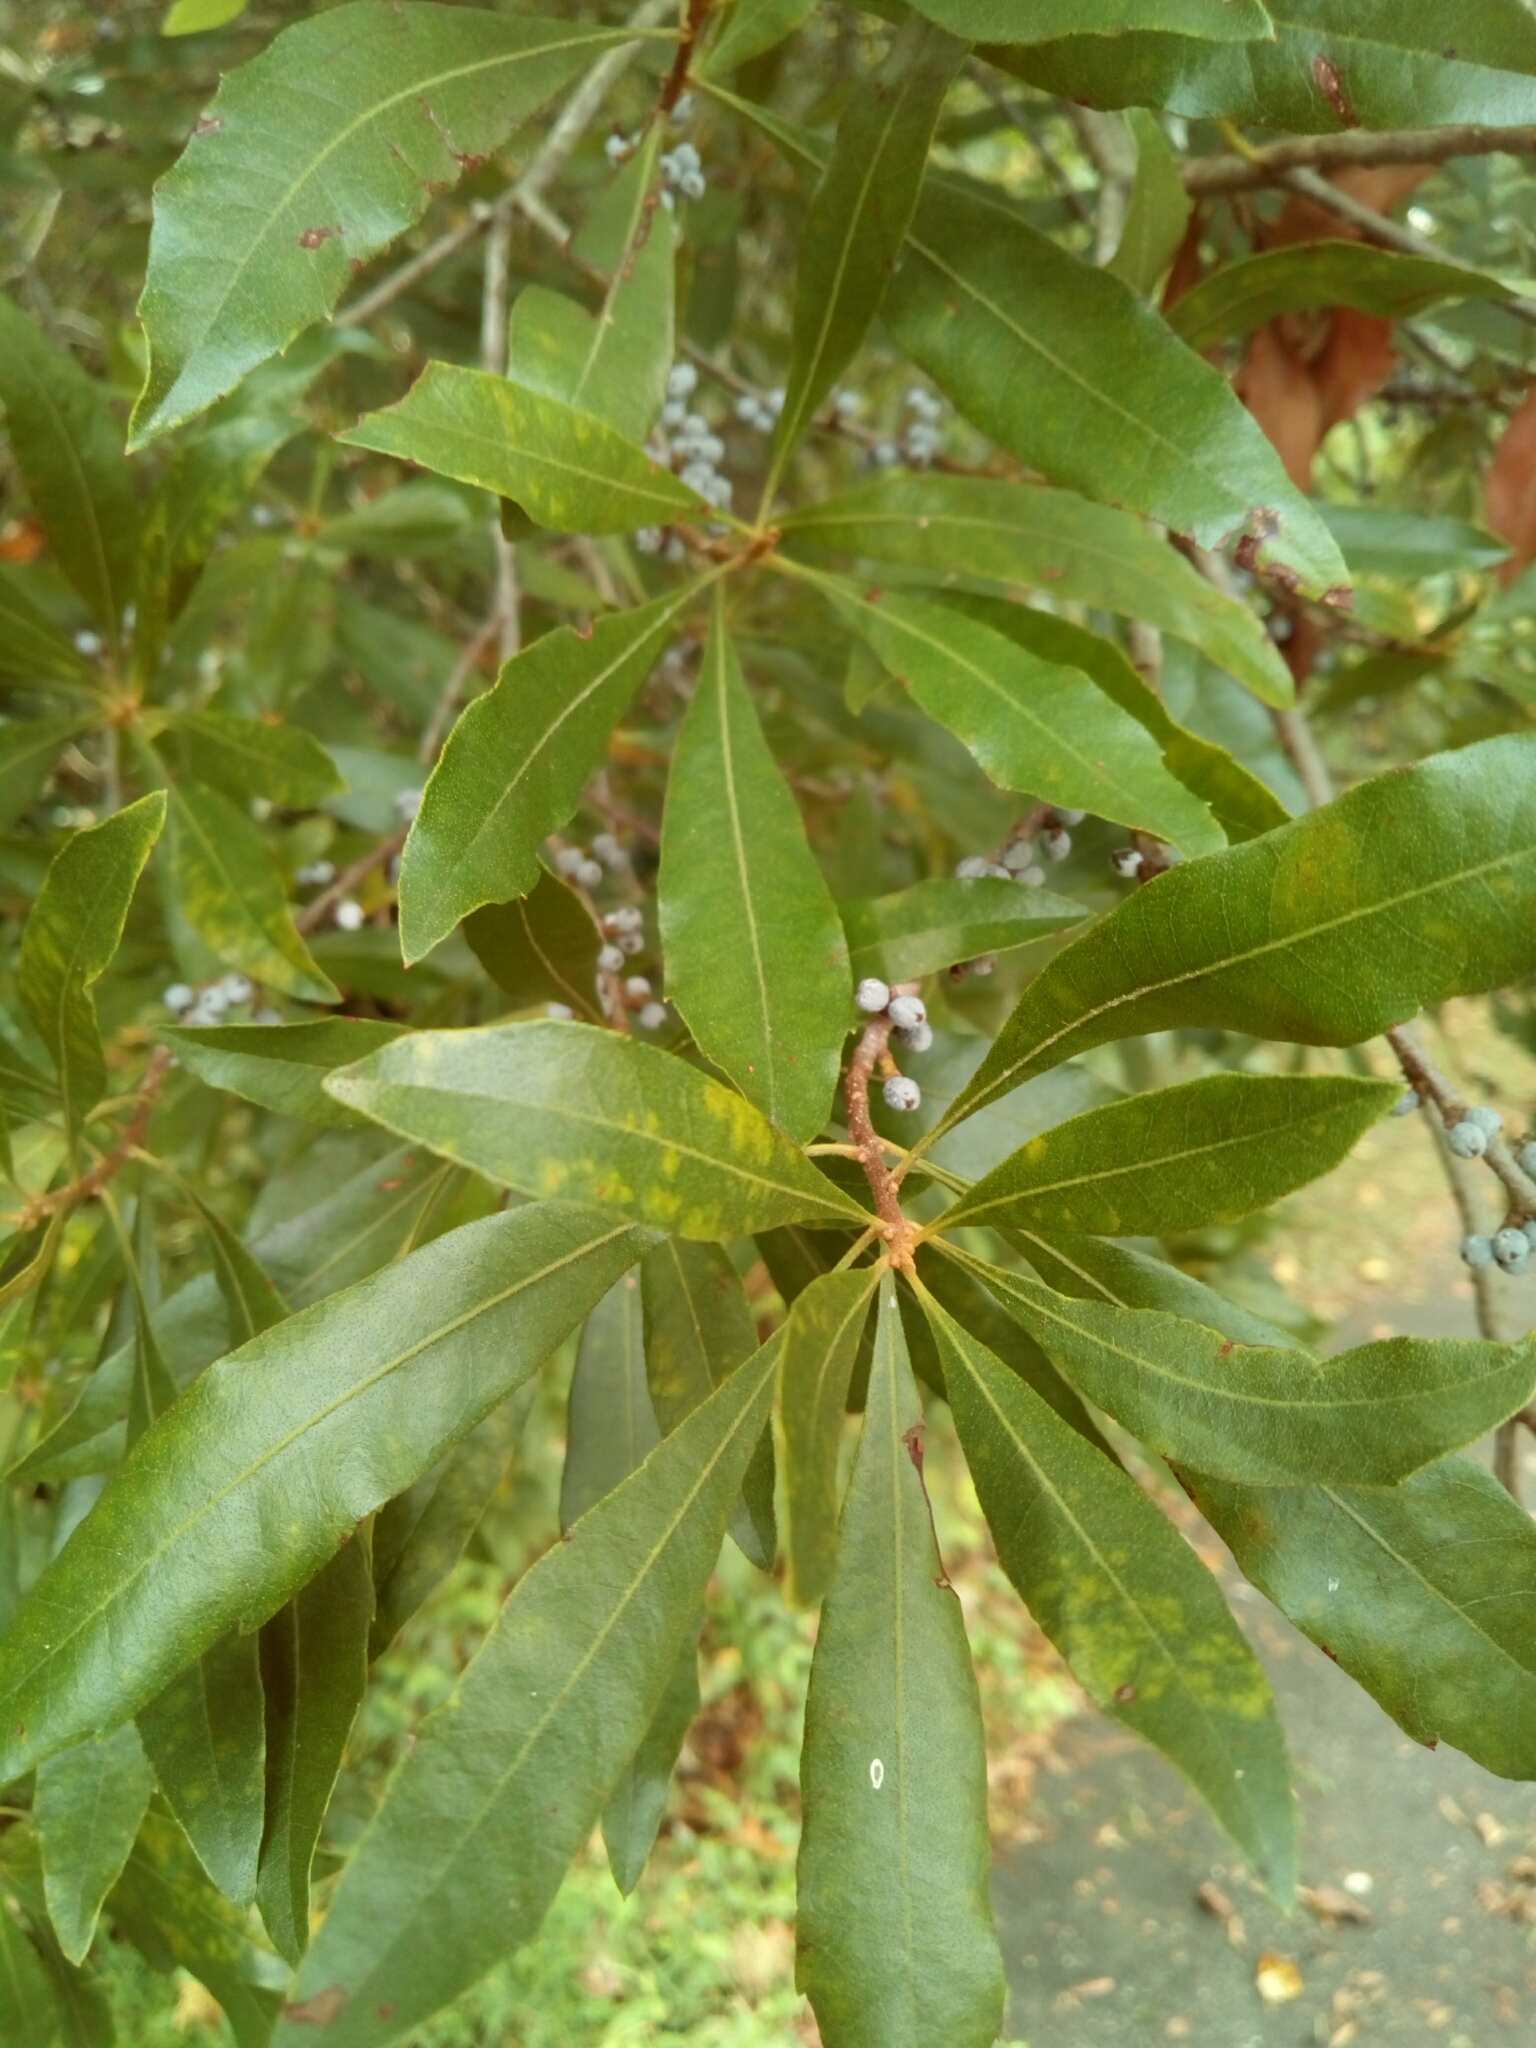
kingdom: Plantae
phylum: Tracheophyta
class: Magnoliopsida
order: Fagales
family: Myricaceae
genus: Morella
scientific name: Morella cerifera
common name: Wax myrtle
